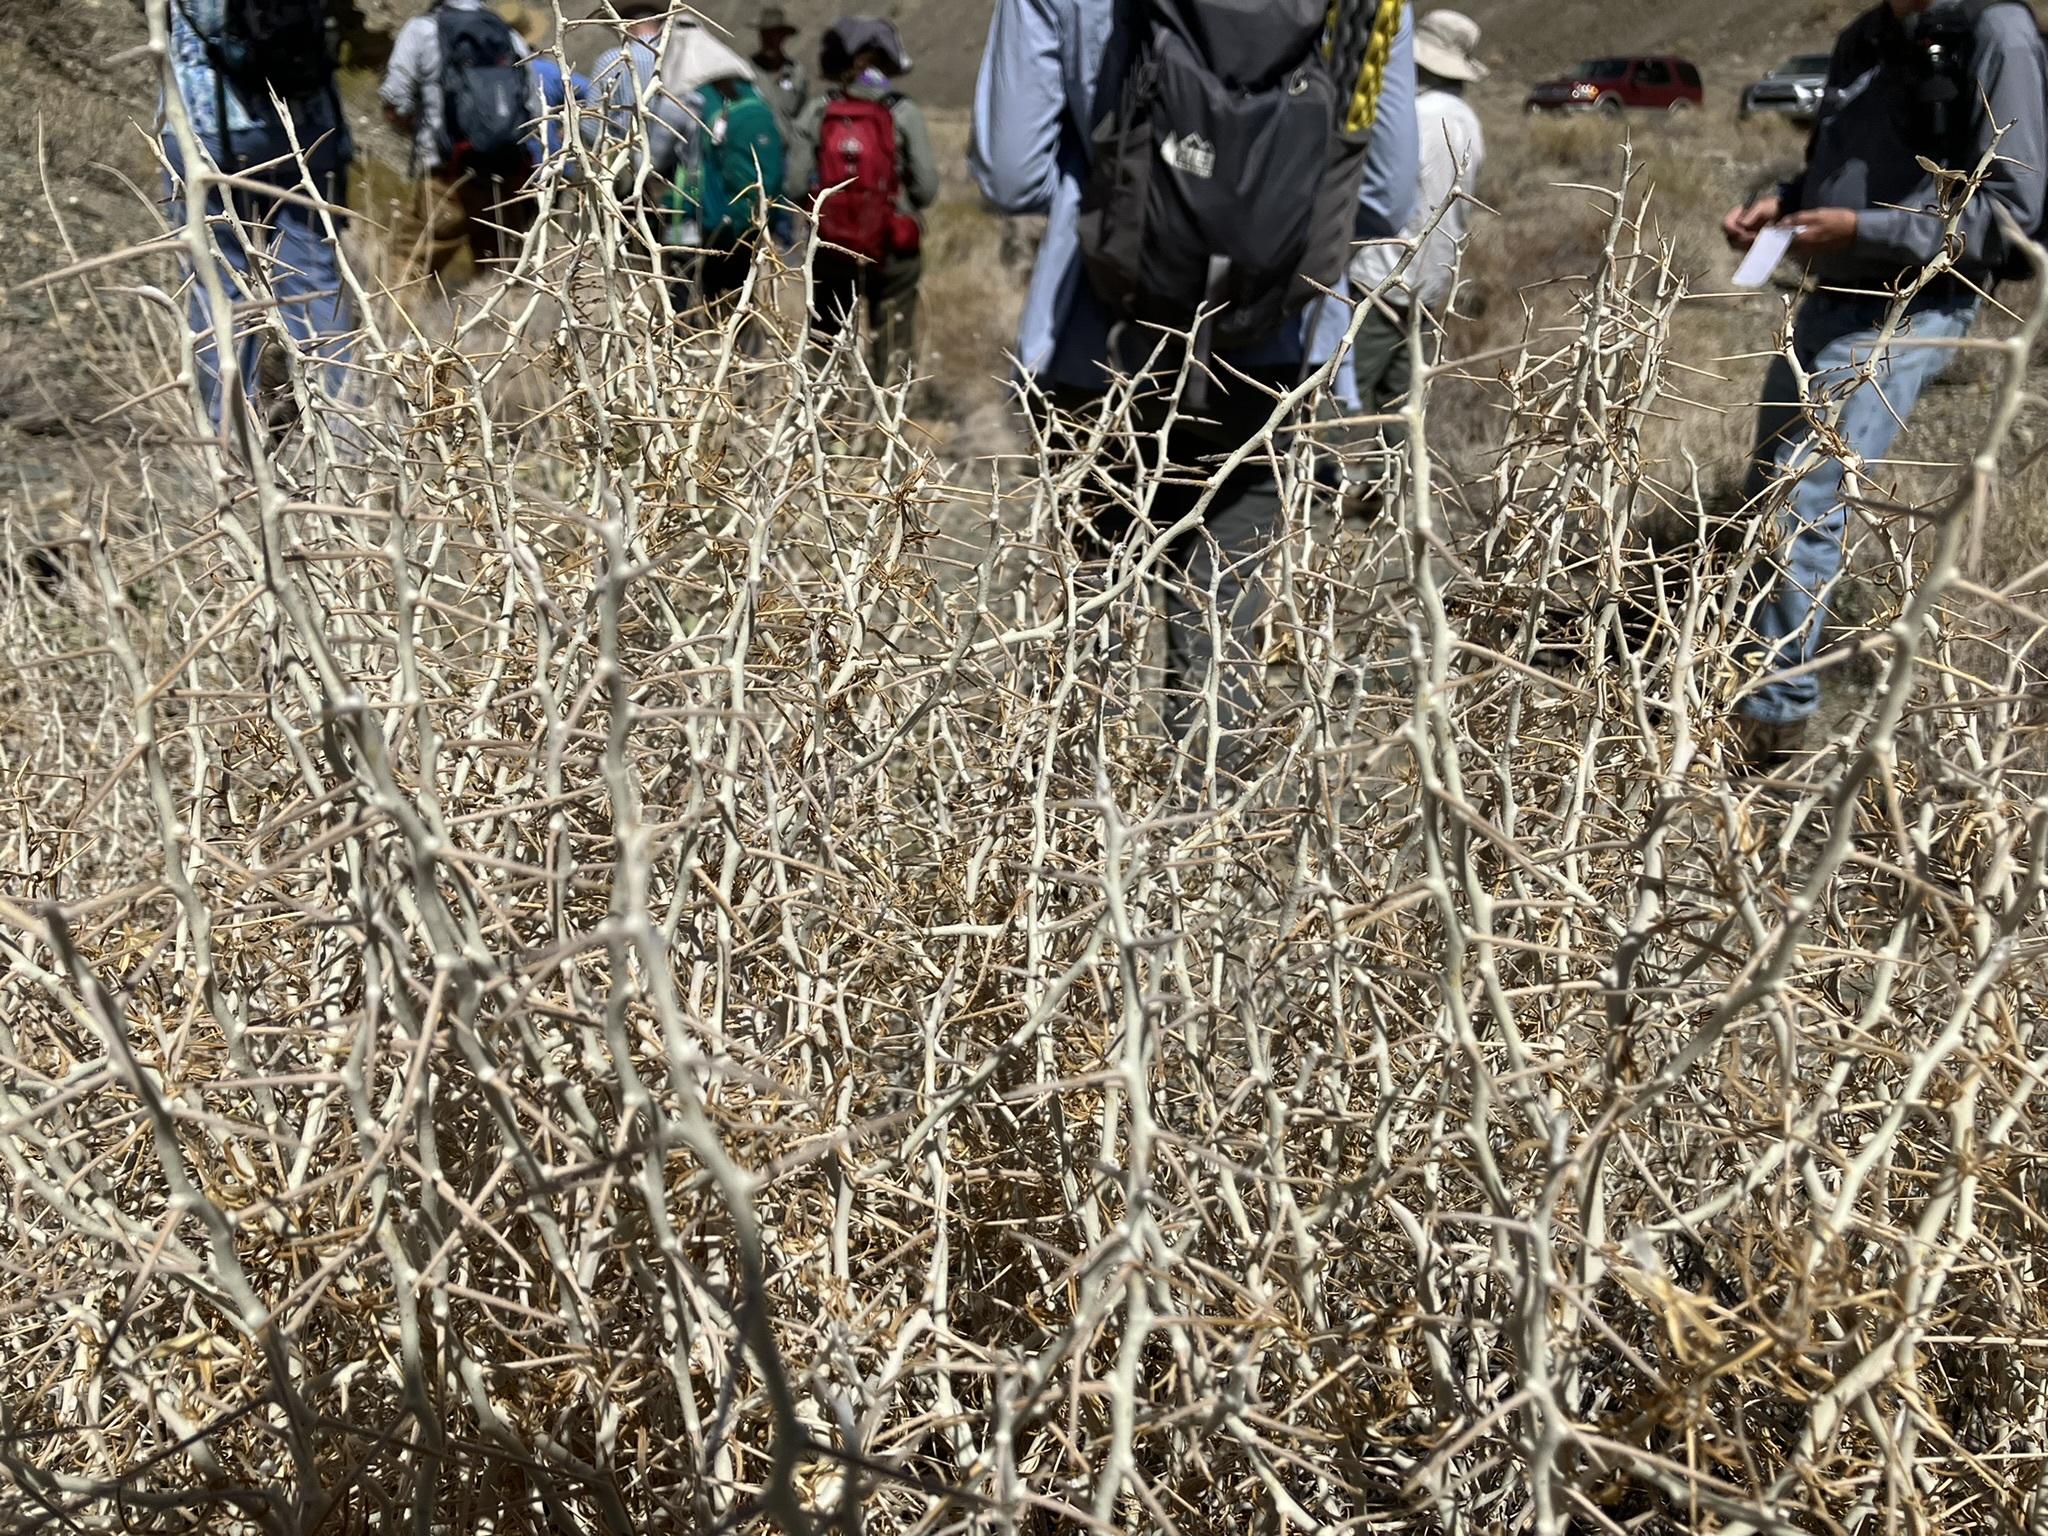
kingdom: Plantae
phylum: Tracheophyta
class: Magnoliopsida
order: Asterales
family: Asteraceae
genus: Tetradymia
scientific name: Tetradymia axillaris
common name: Long-spine horsebrush
